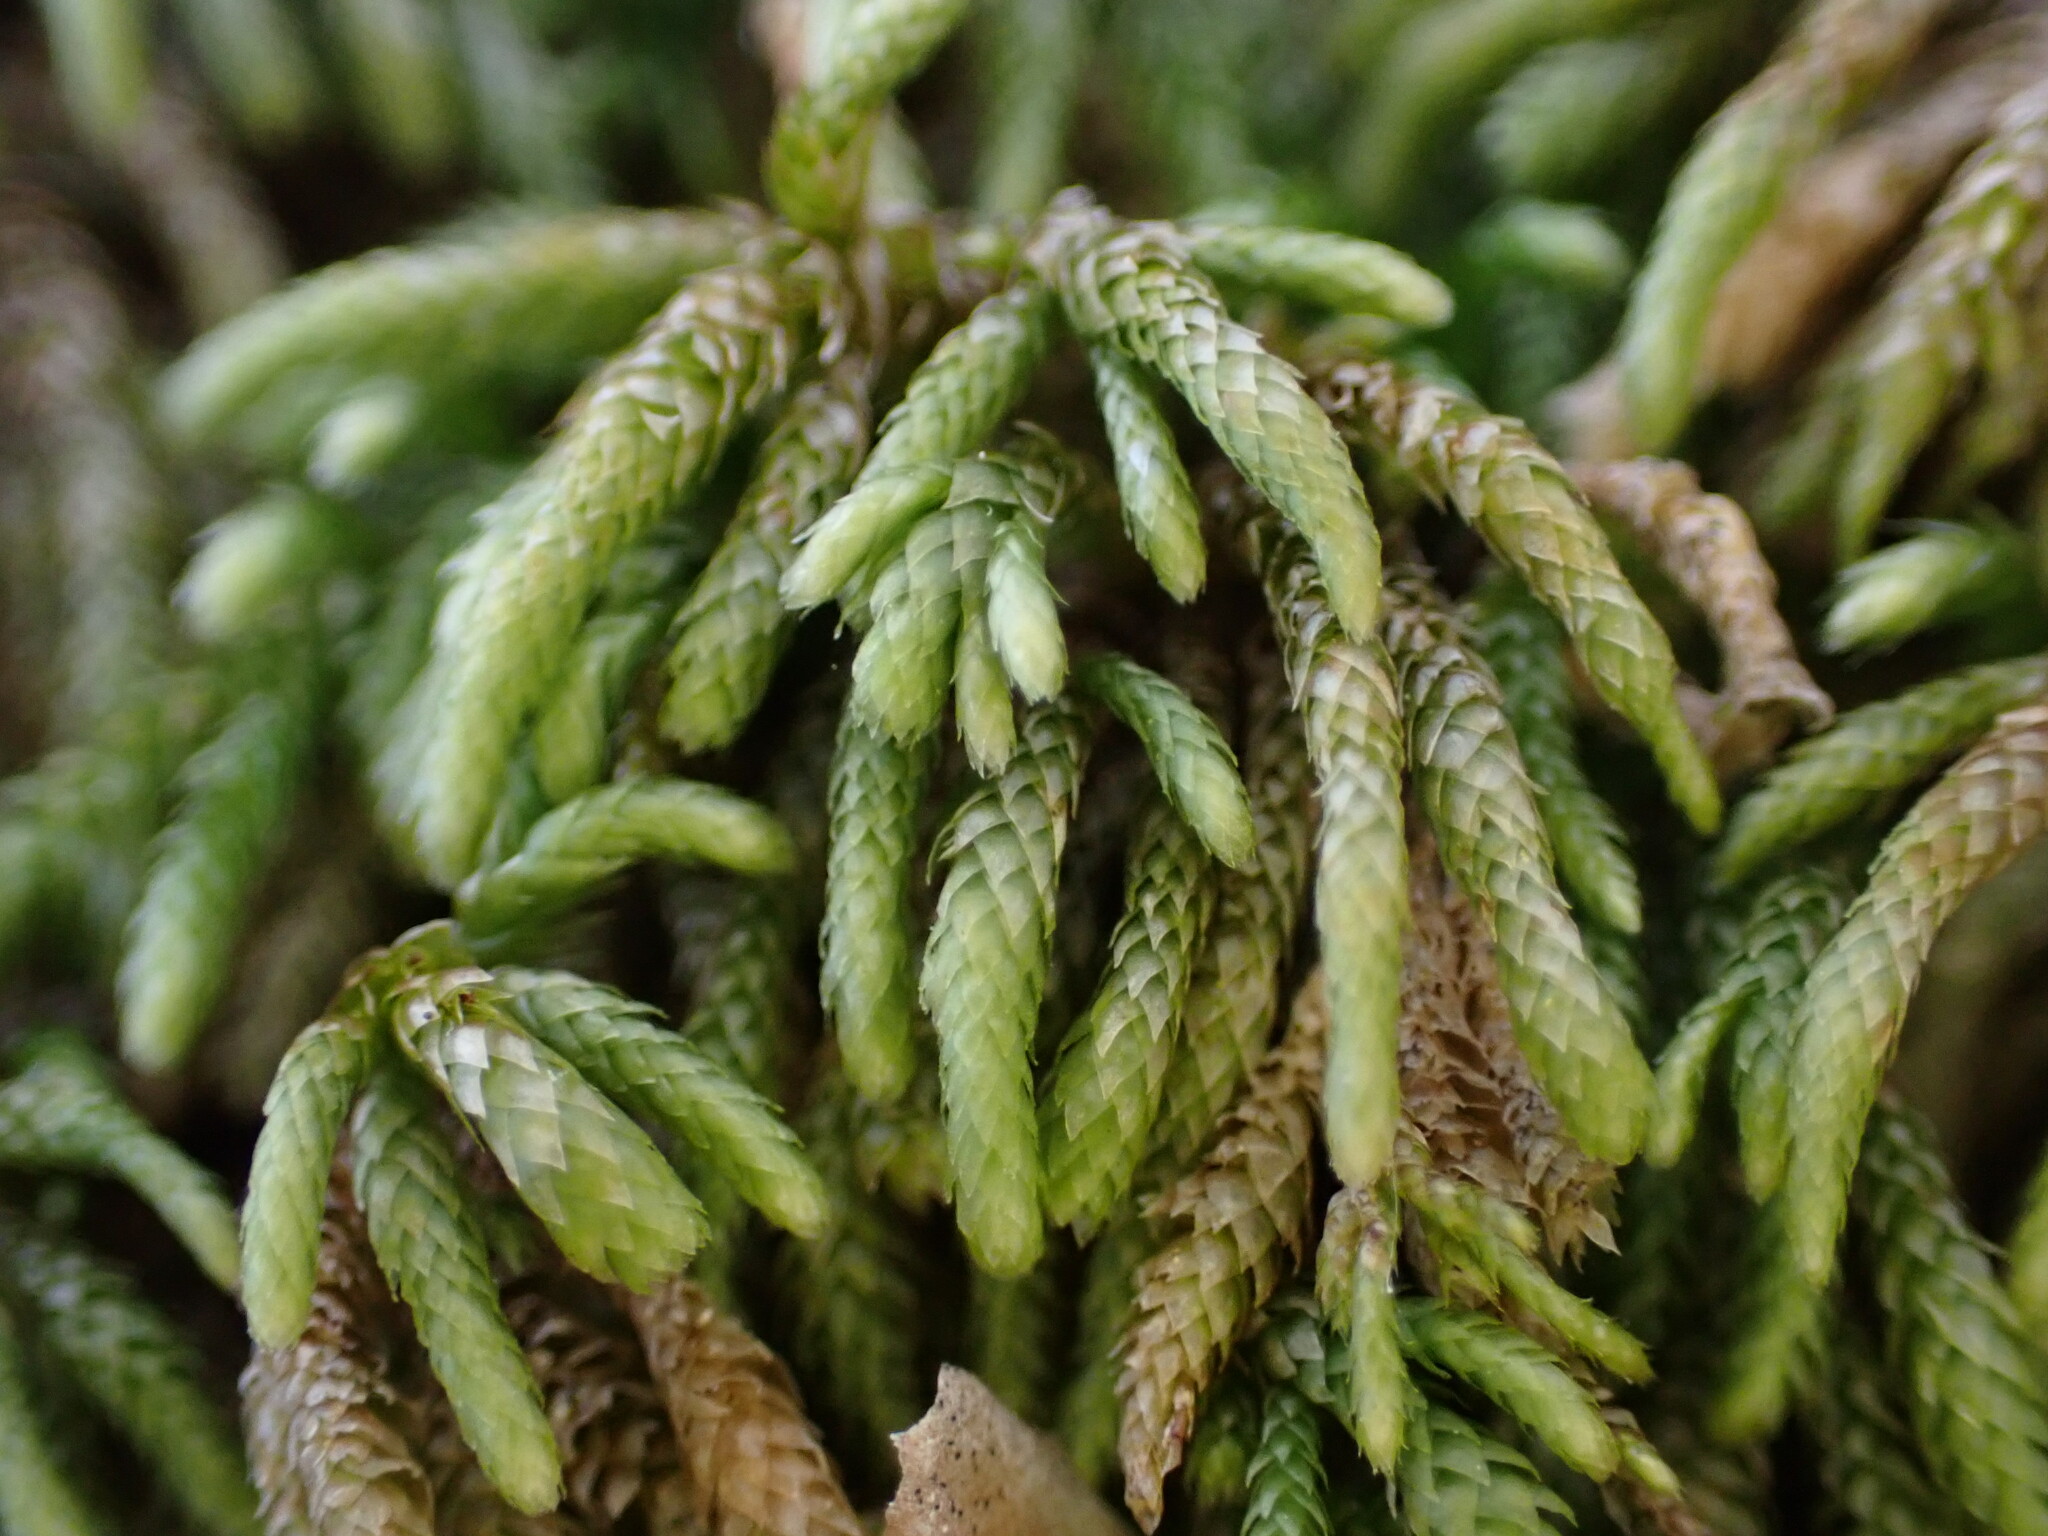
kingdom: Plantae
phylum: Bryophyta
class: Bryopsida
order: Hypnales
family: Lembophyllaceae
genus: Nogopterium
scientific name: Nogopterium gracile
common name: Bird's-foot wing-moss
